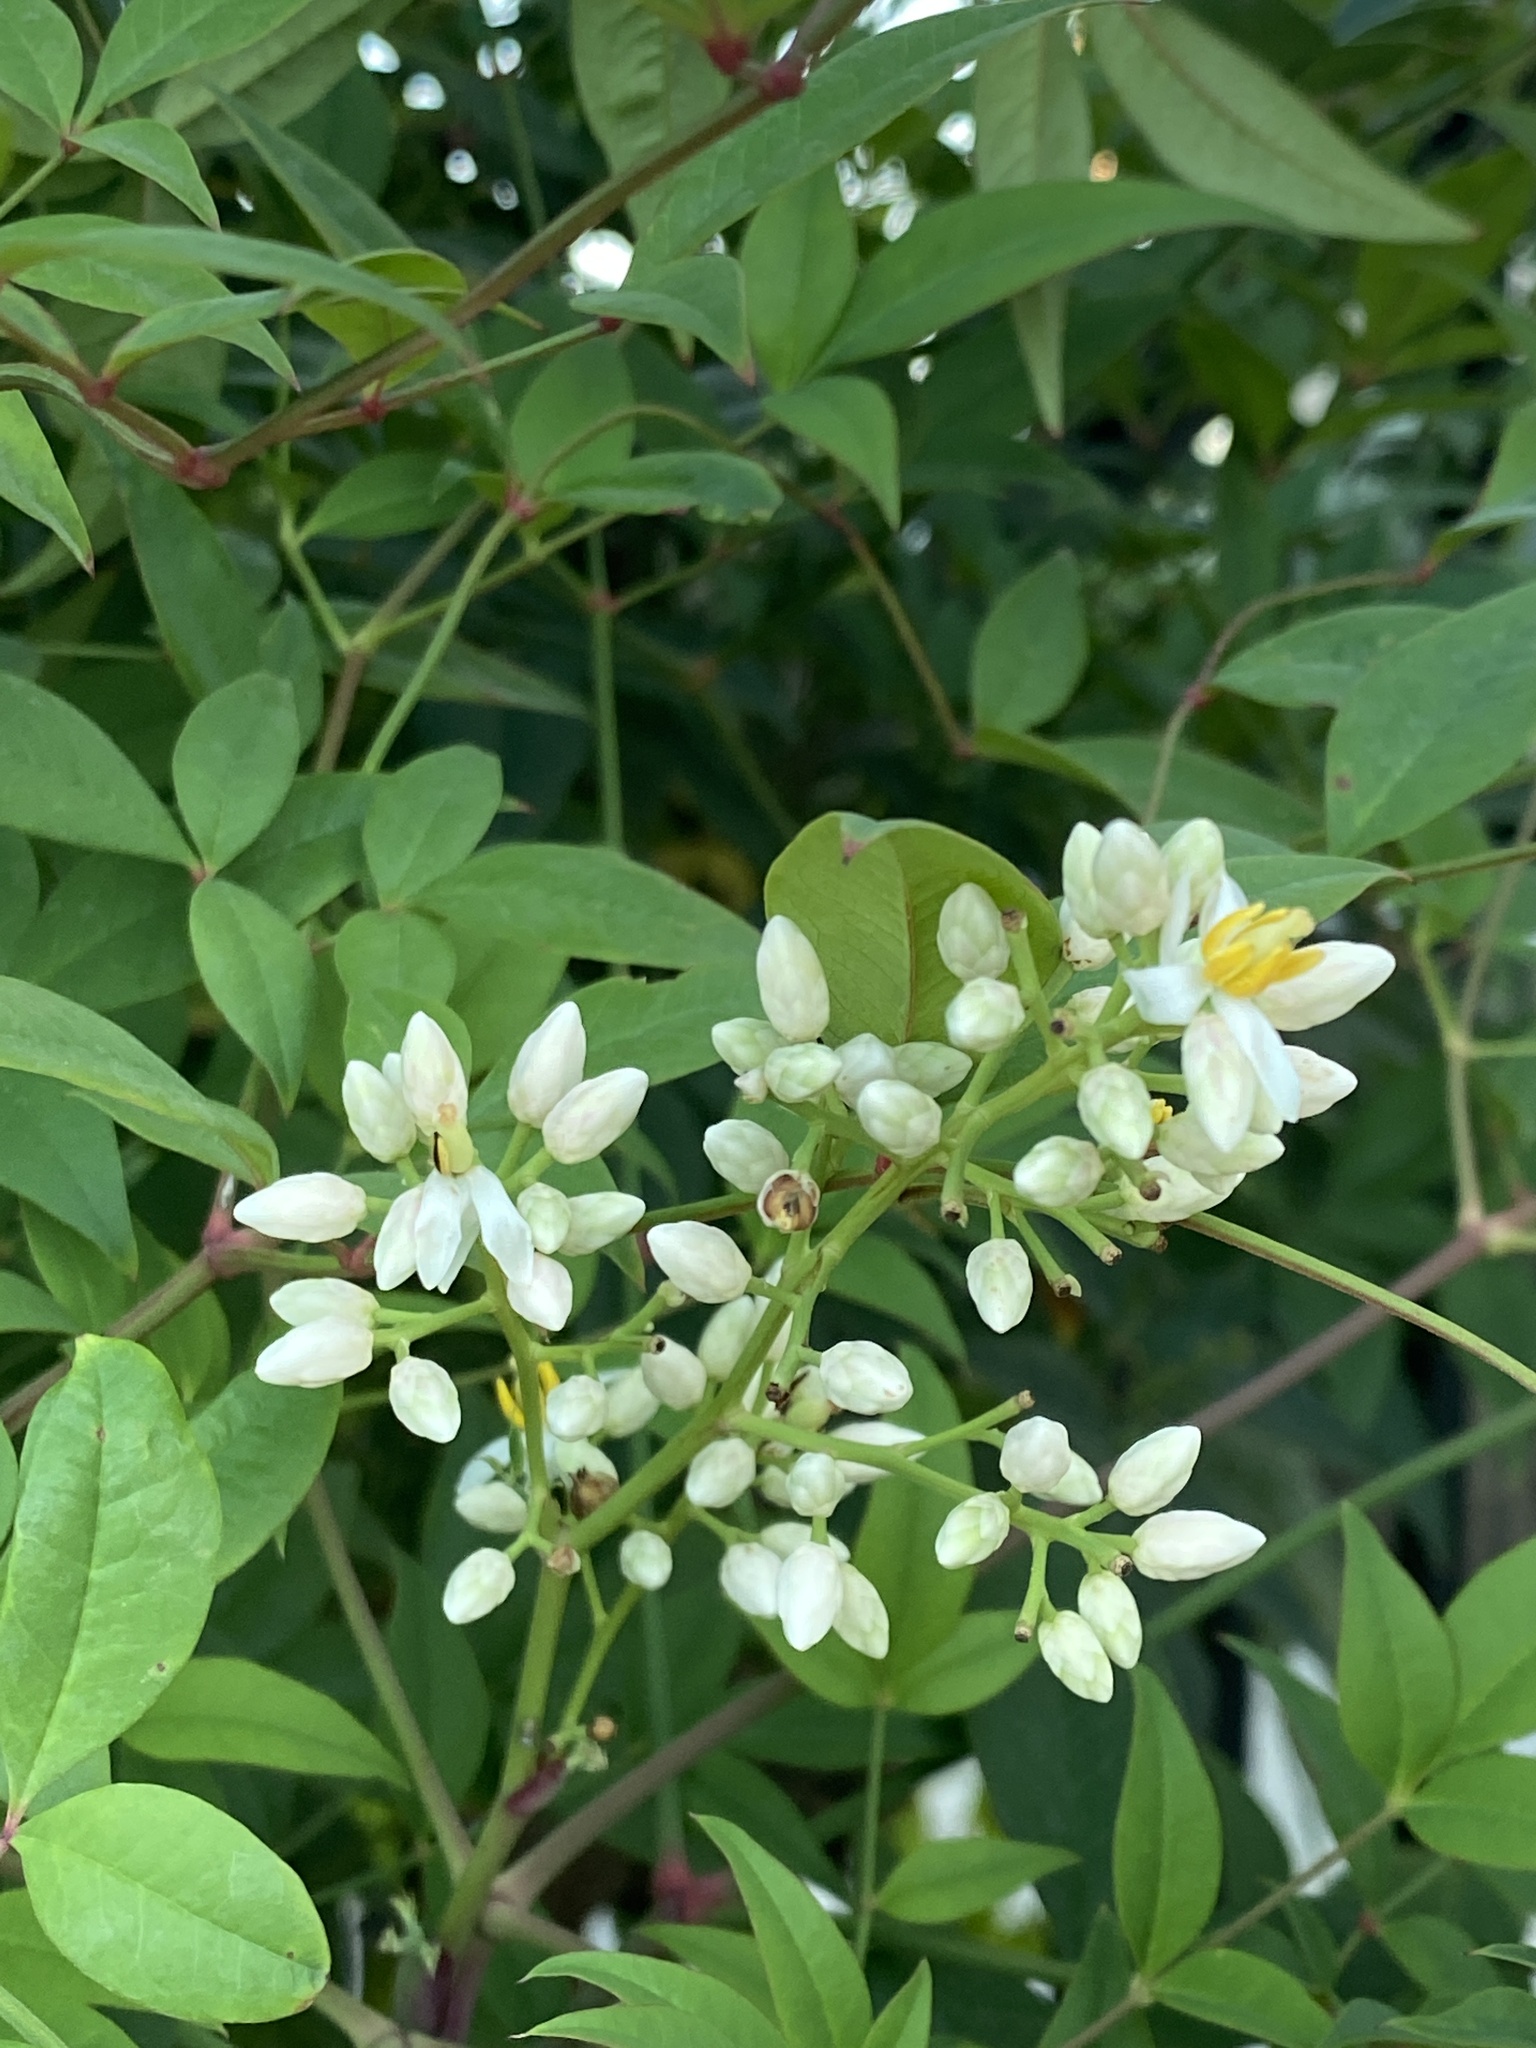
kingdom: Plantae
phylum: Tracheophyta
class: Magnoliopsida
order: Ranunculales
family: Berberidaceae
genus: Nandina
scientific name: Nandina domestica
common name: Sacred bamboo
